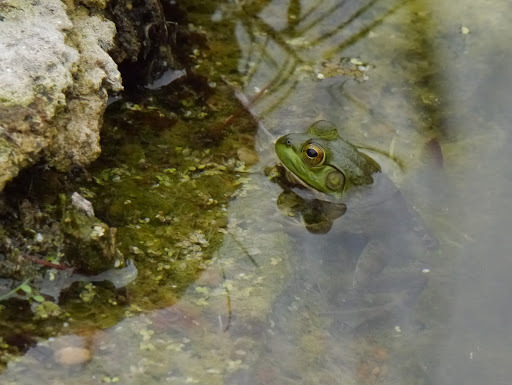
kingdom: Animalia
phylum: Chordata
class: Amphibia
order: Anura
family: Ranidae
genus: Lithobates
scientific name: Lithobates catesbeianus
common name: American bullfrog
